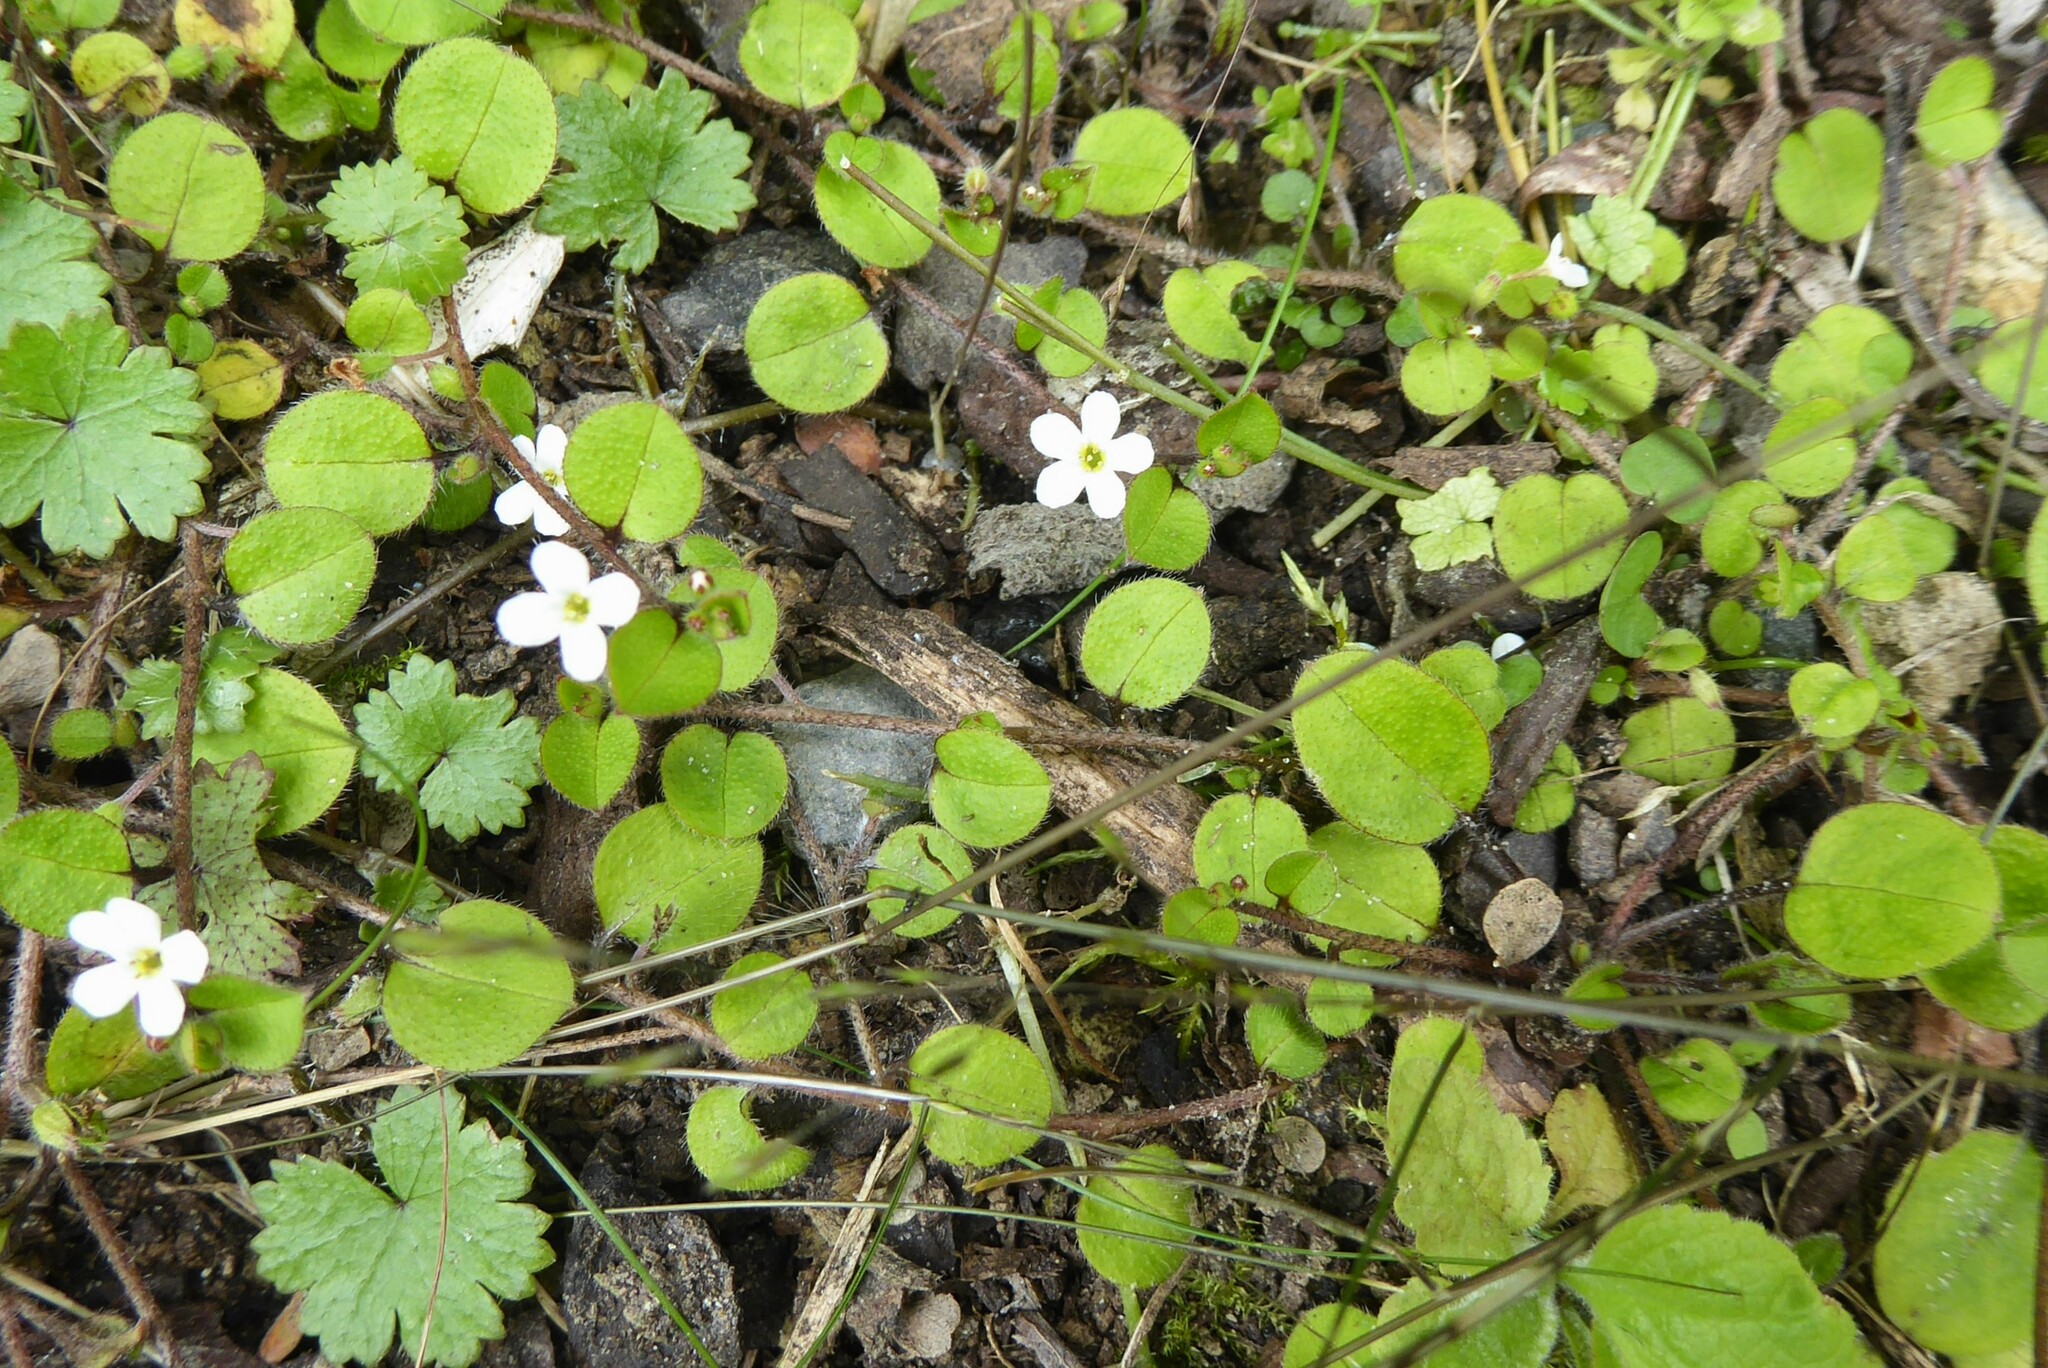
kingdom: Plantae
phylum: Tracheophyta
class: Magnoliopsida
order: Boraginales
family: Boraginaceae
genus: Myosotis
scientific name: Myosotis spathulata
